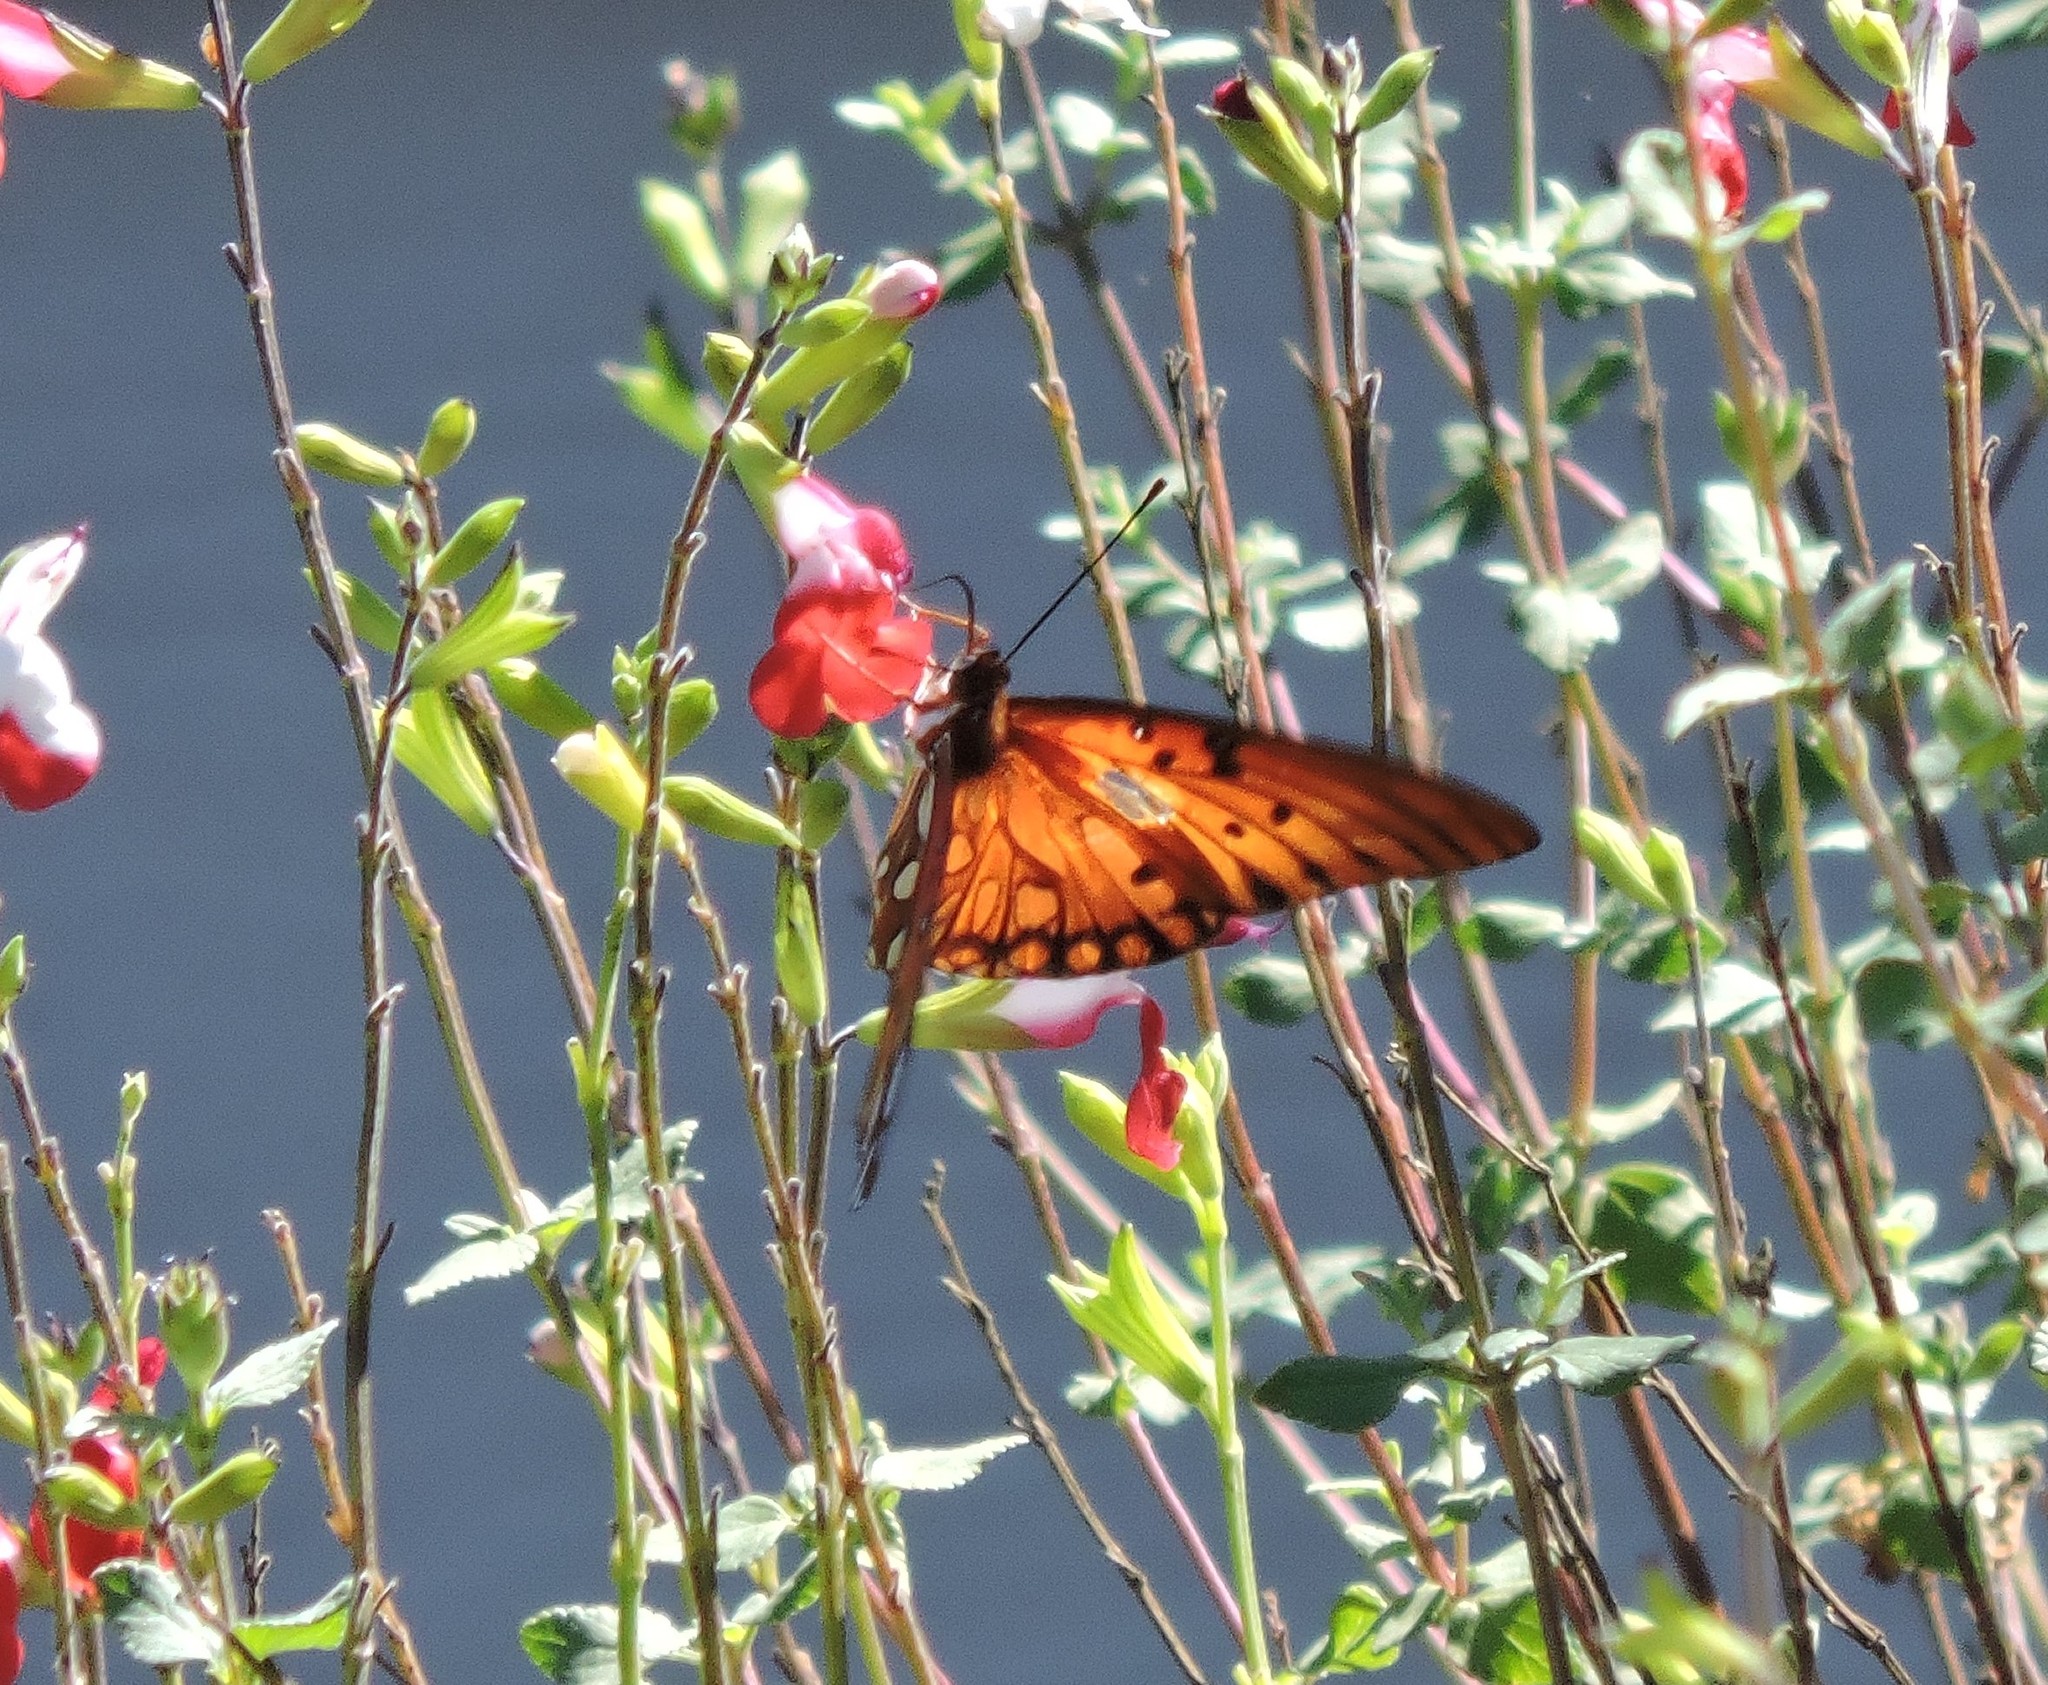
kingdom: Animalia
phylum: Arthropoda
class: Insecta
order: Lepidoptera
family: Nymphalidae
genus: Dione
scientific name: Dione vanillae
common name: Gulf fritillary
